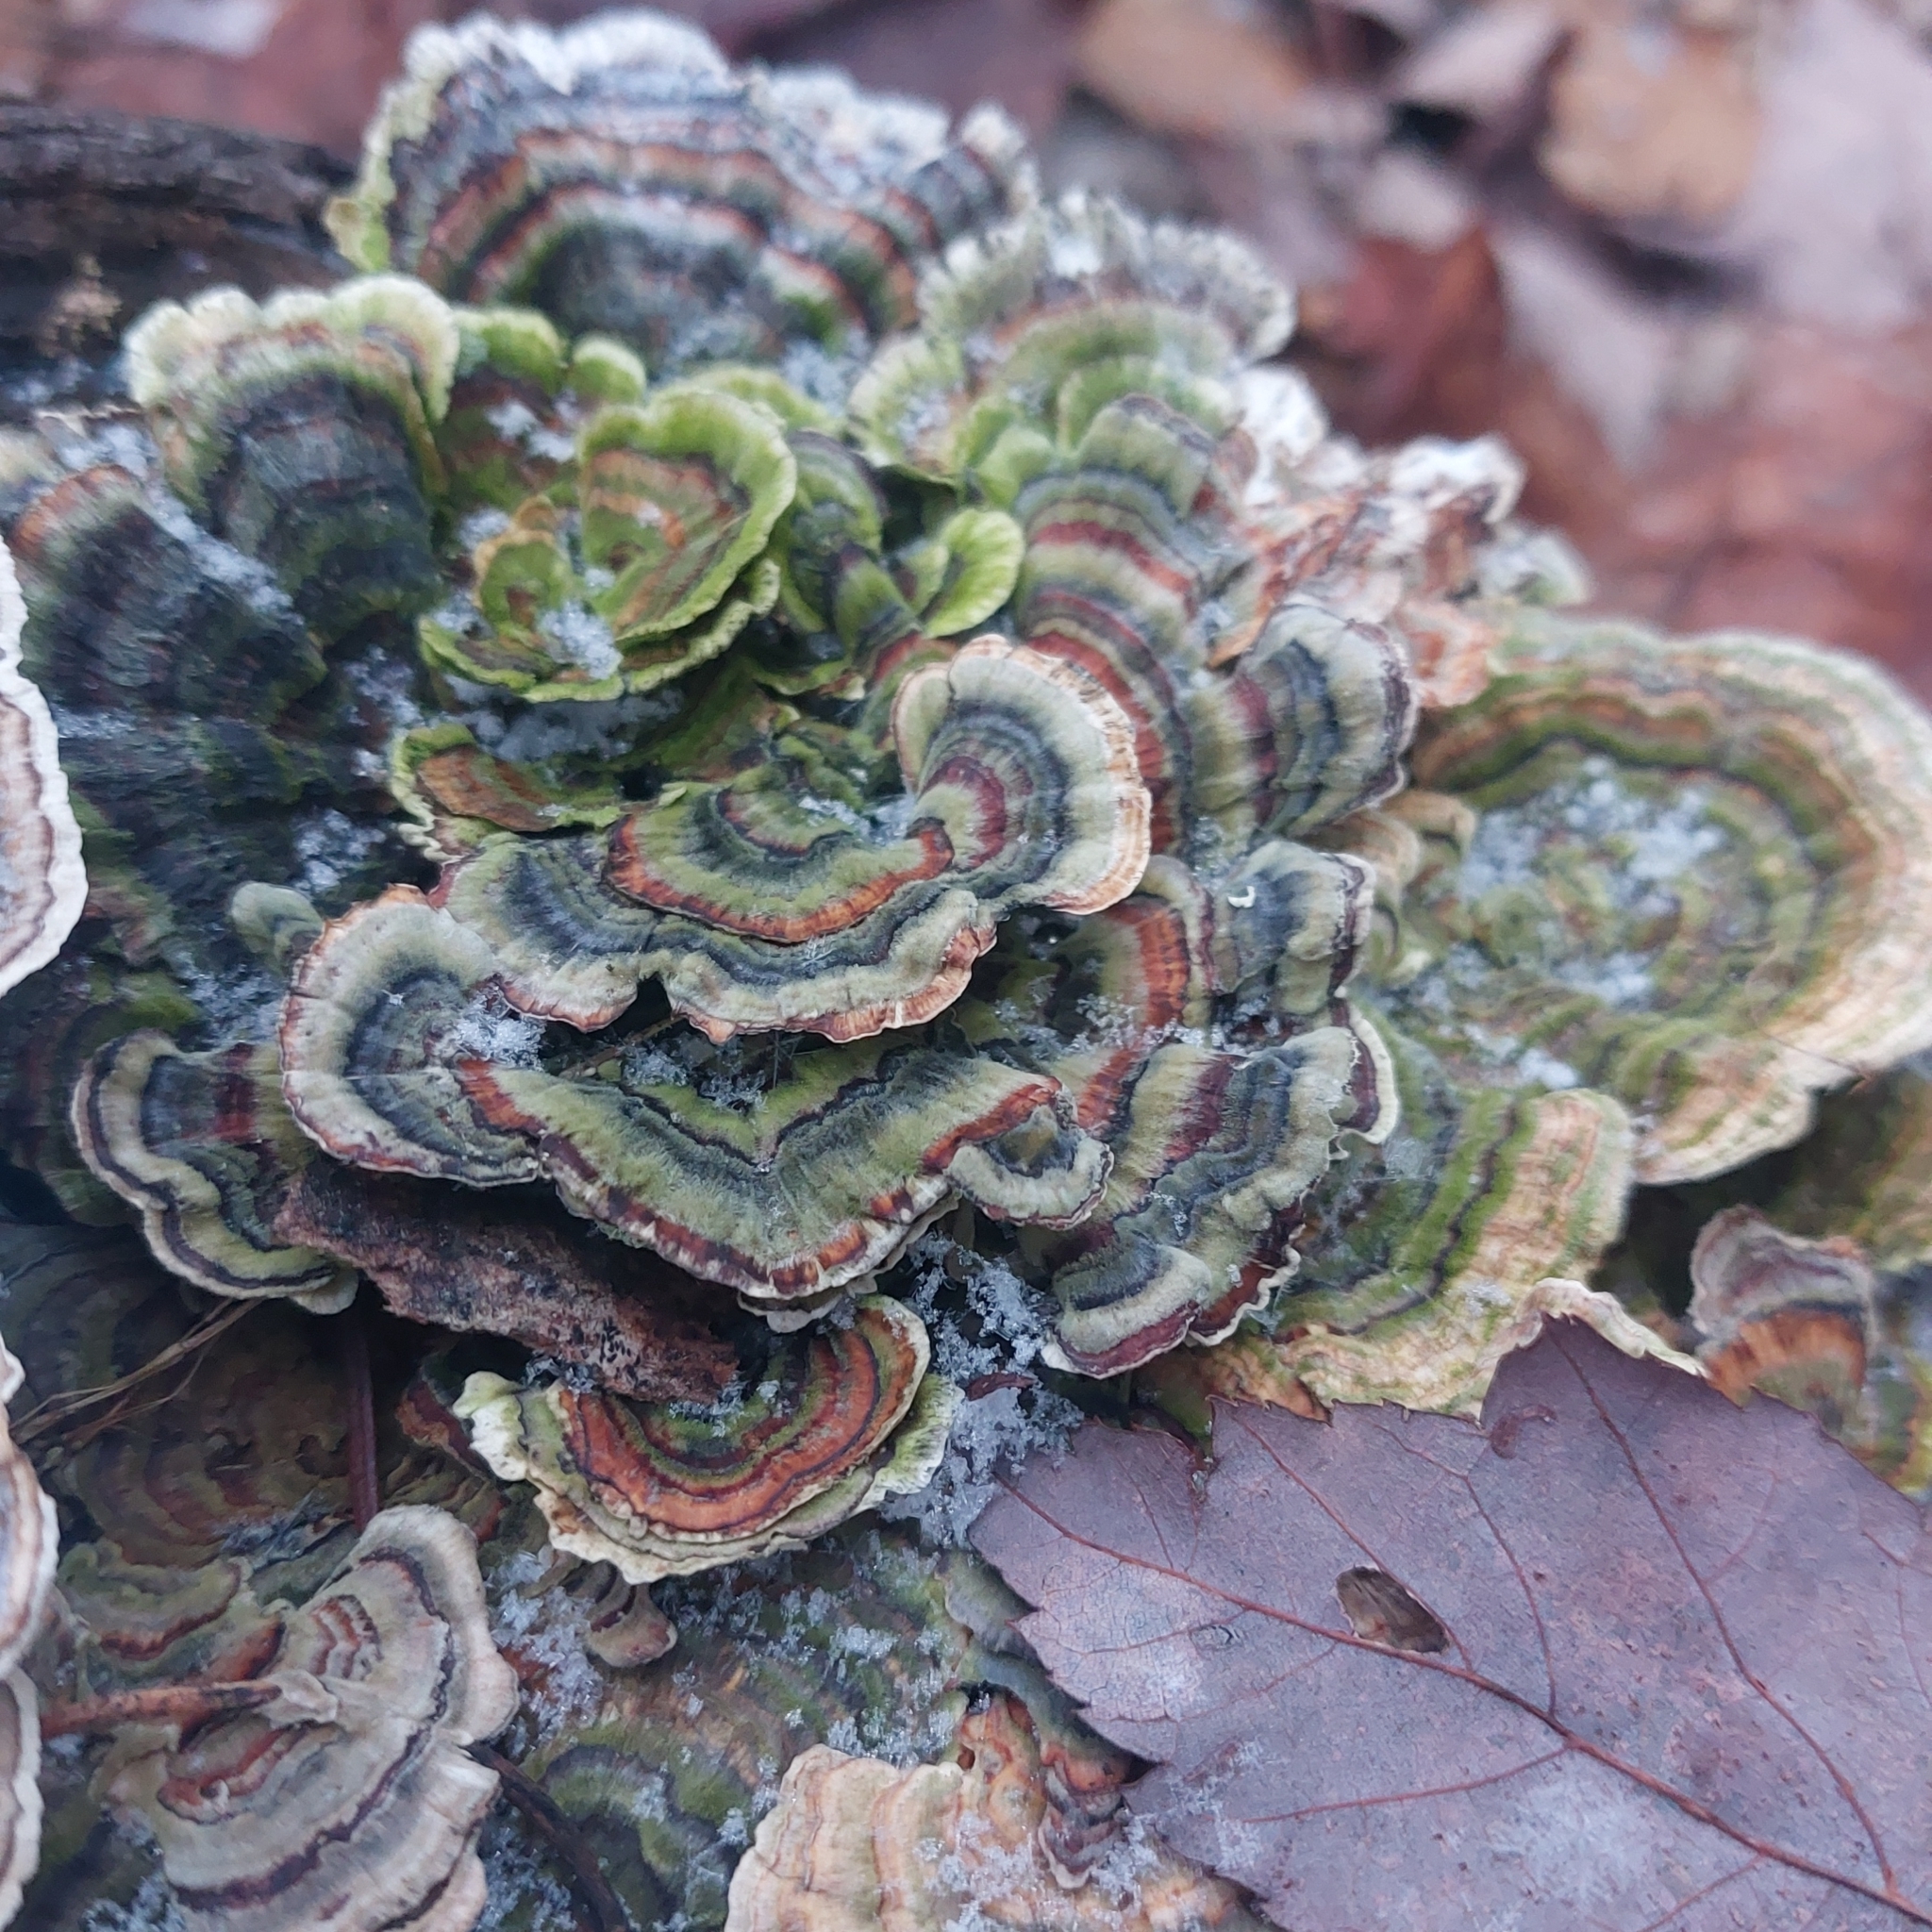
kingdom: Fungi
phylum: Basidiomycota
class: Agaricomycetes
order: Polyporales
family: Polyporaceae
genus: Trametes
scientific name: Trametes versicolor
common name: Turkeytail
